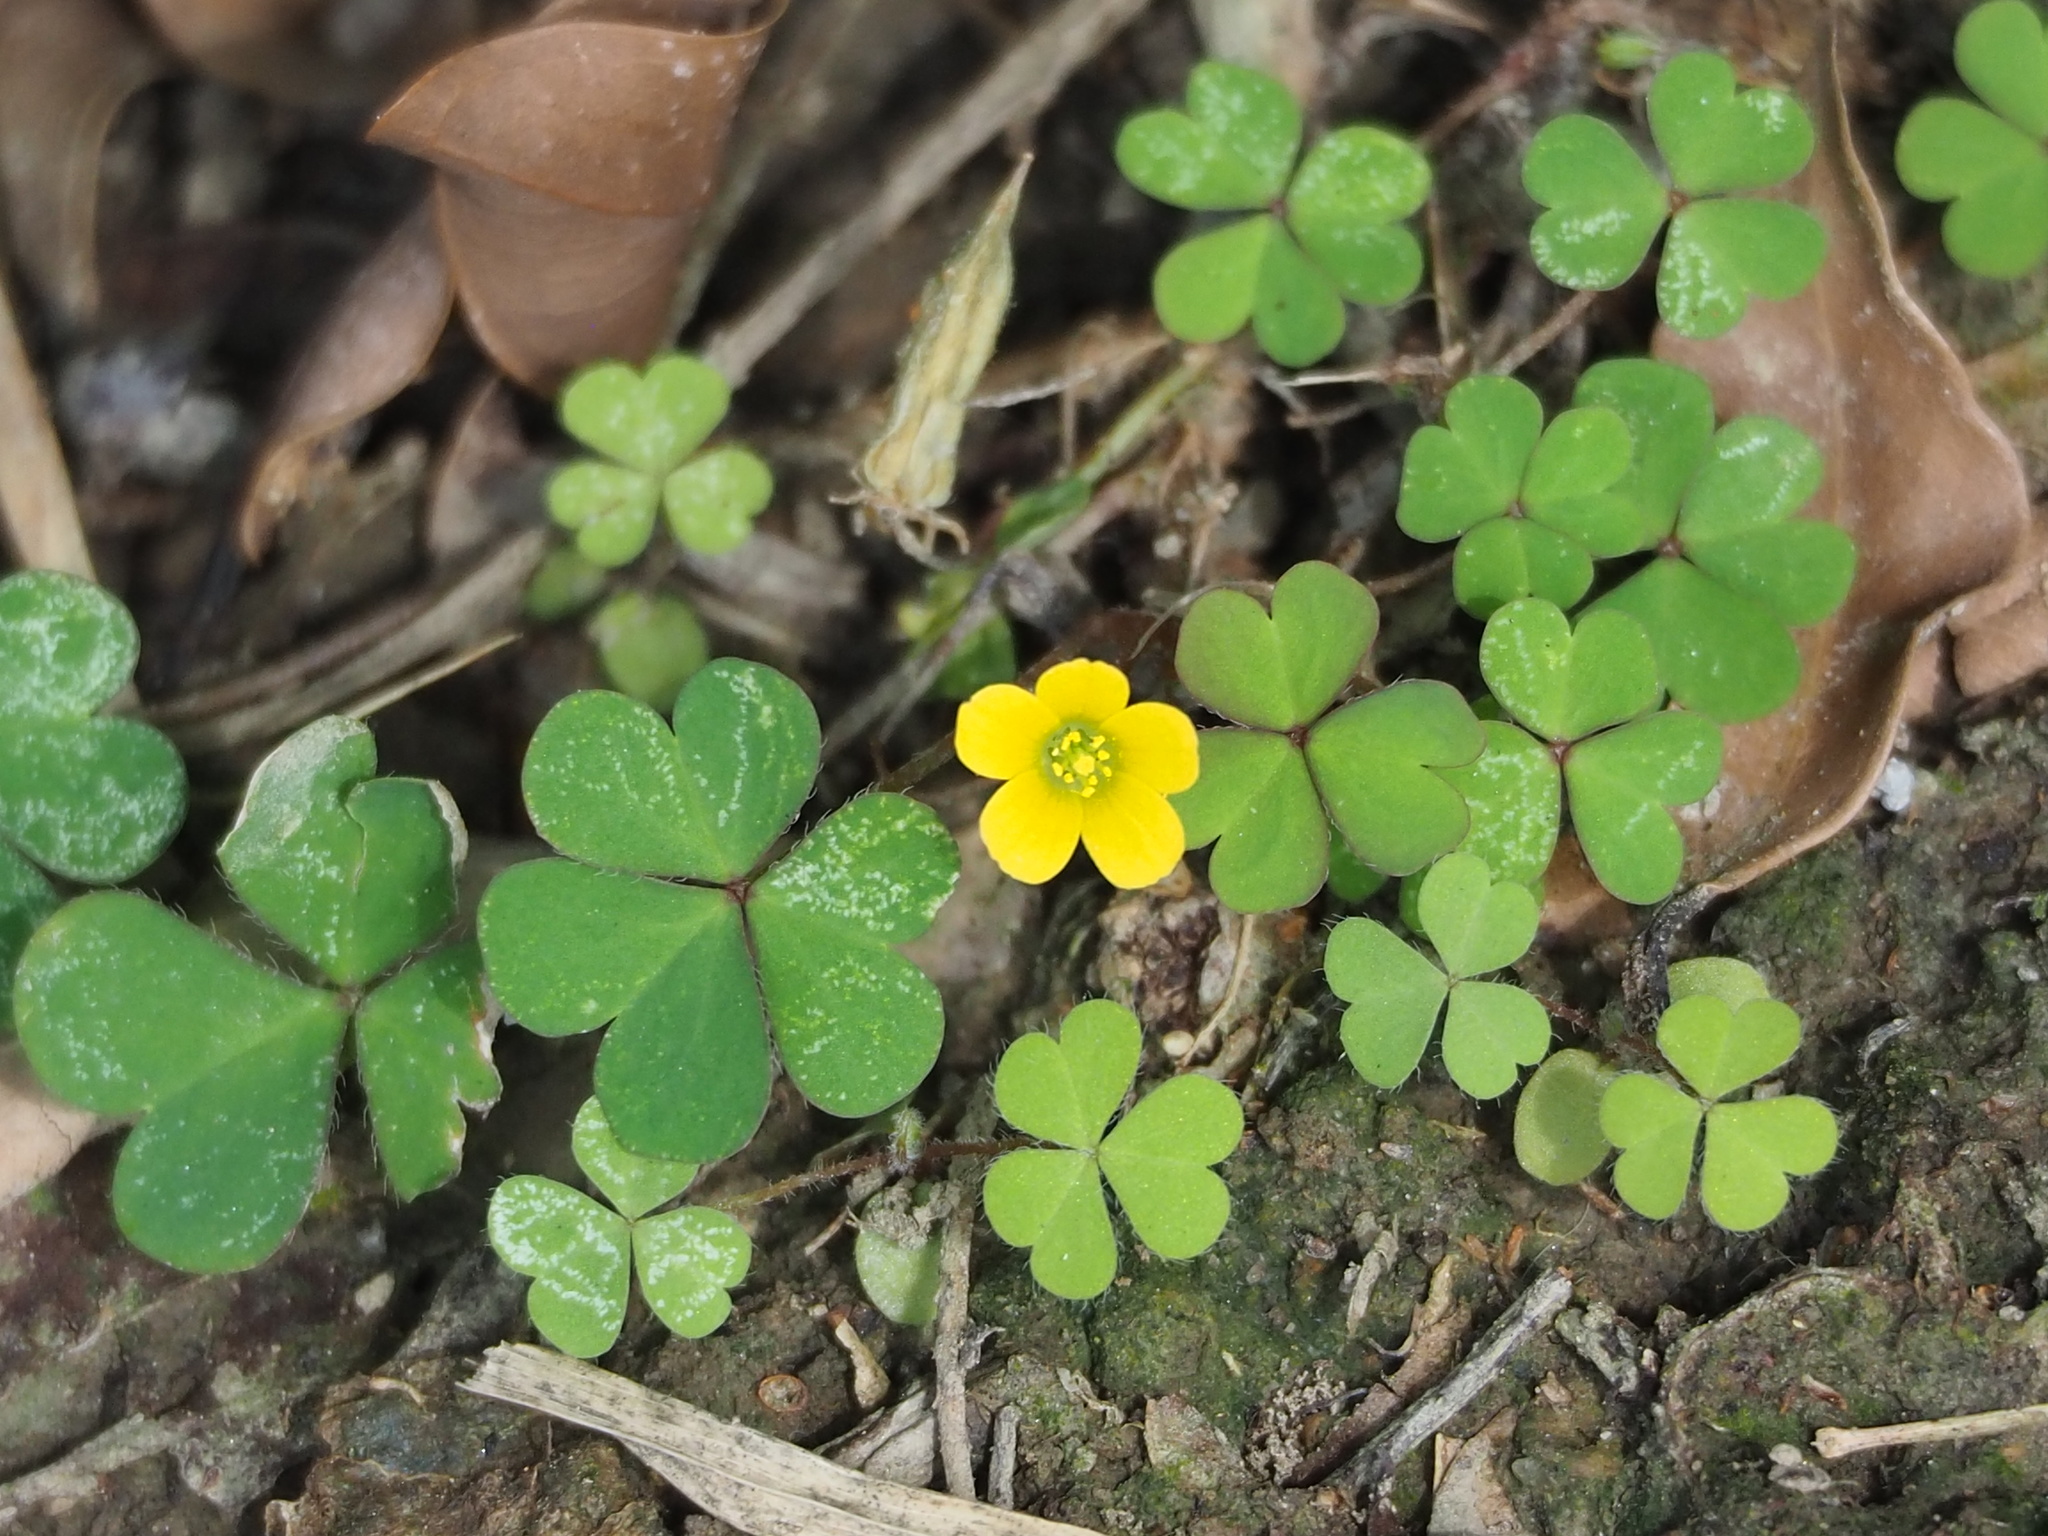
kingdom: Plantae
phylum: Tracheophyta
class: Magnoliopsida
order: Oxalidales
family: Oxalidaceae
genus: Oxalis
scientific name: Oxalis corniculata
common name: Procumbent yellow-sorrel
